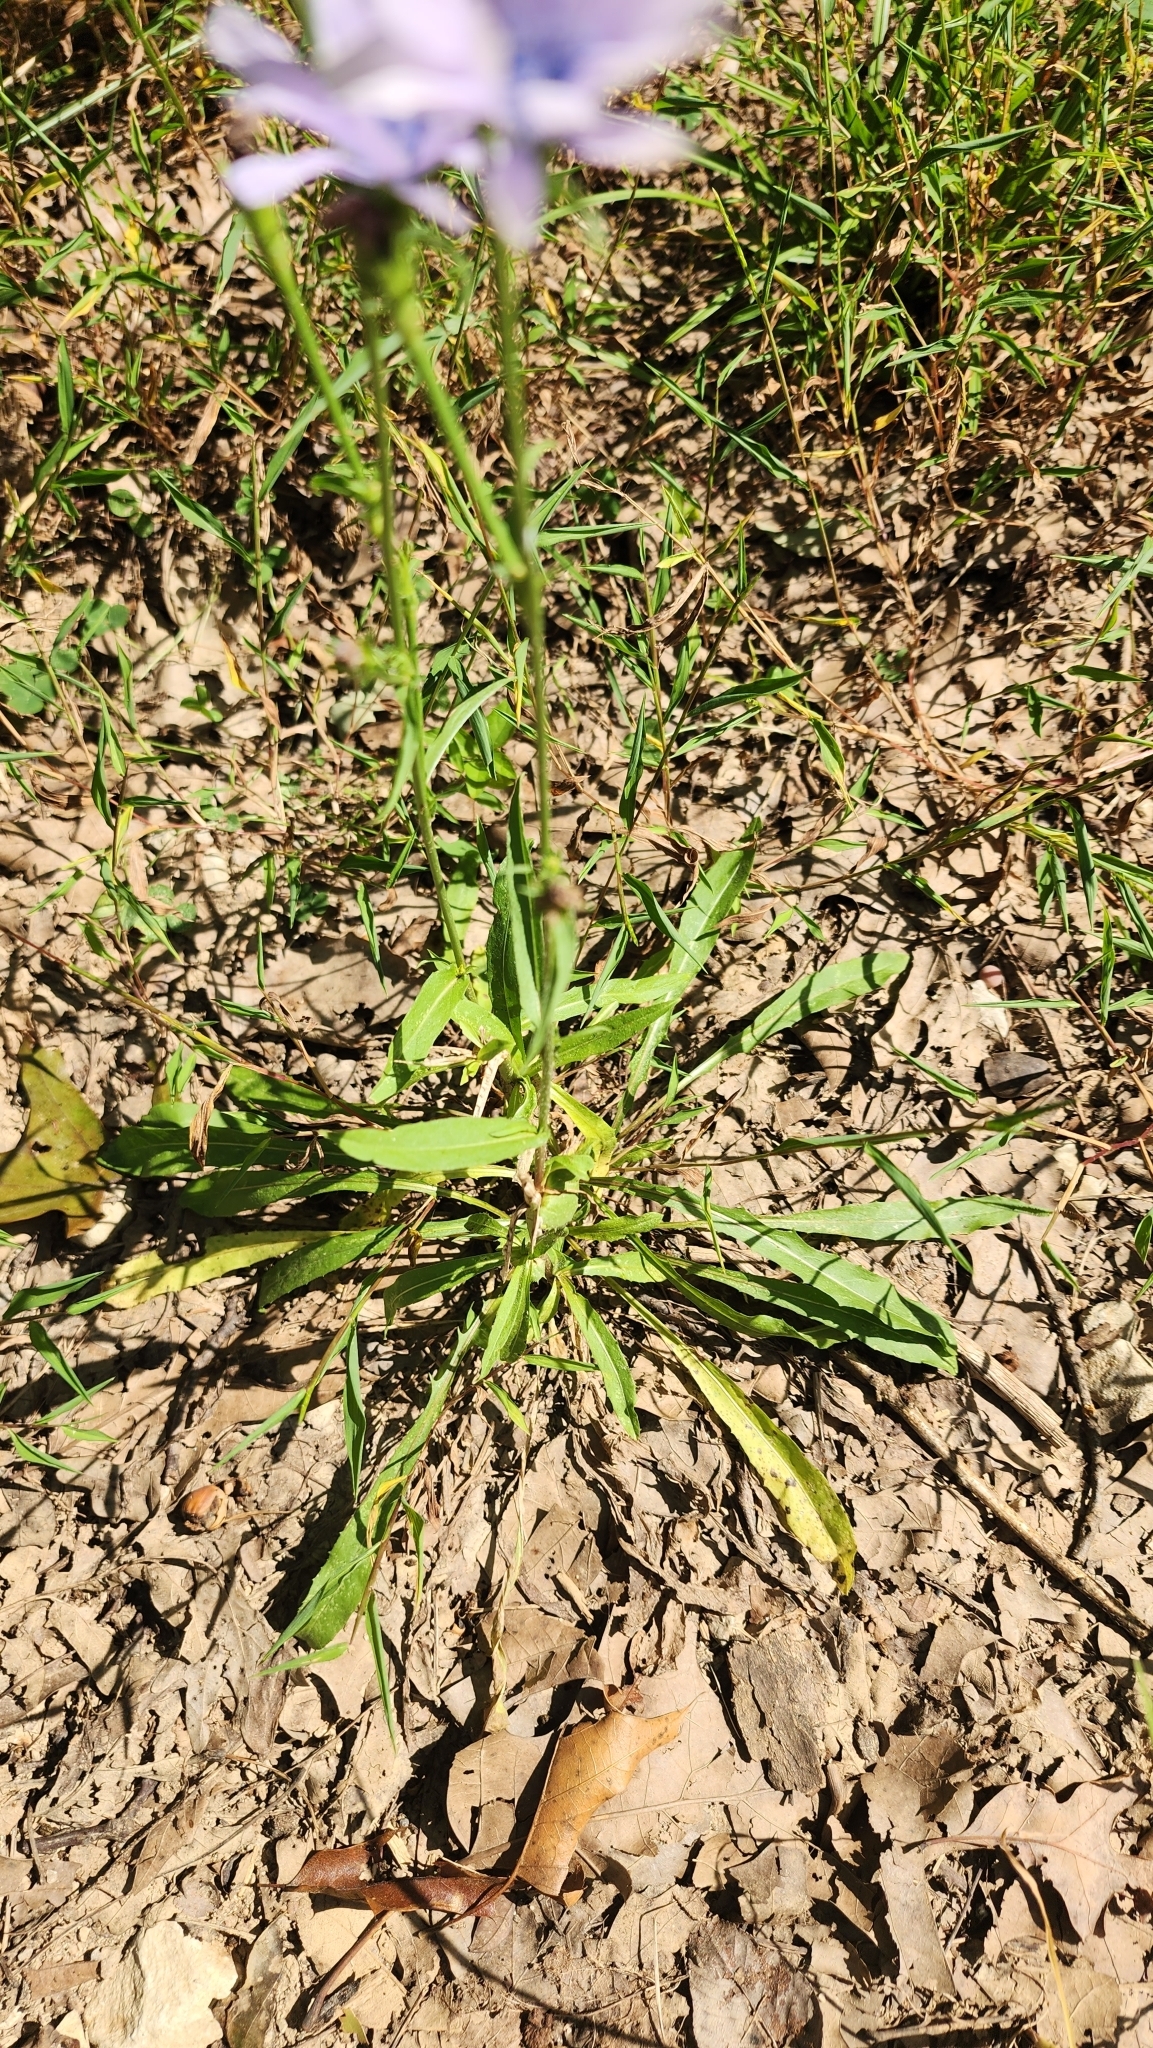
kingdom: Plantae
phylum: Tracheophyta
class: Magnoliopsida
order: Asterales
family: Asteraceae
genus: Cichorium
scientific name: Cichorium intybus
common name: Chicory
